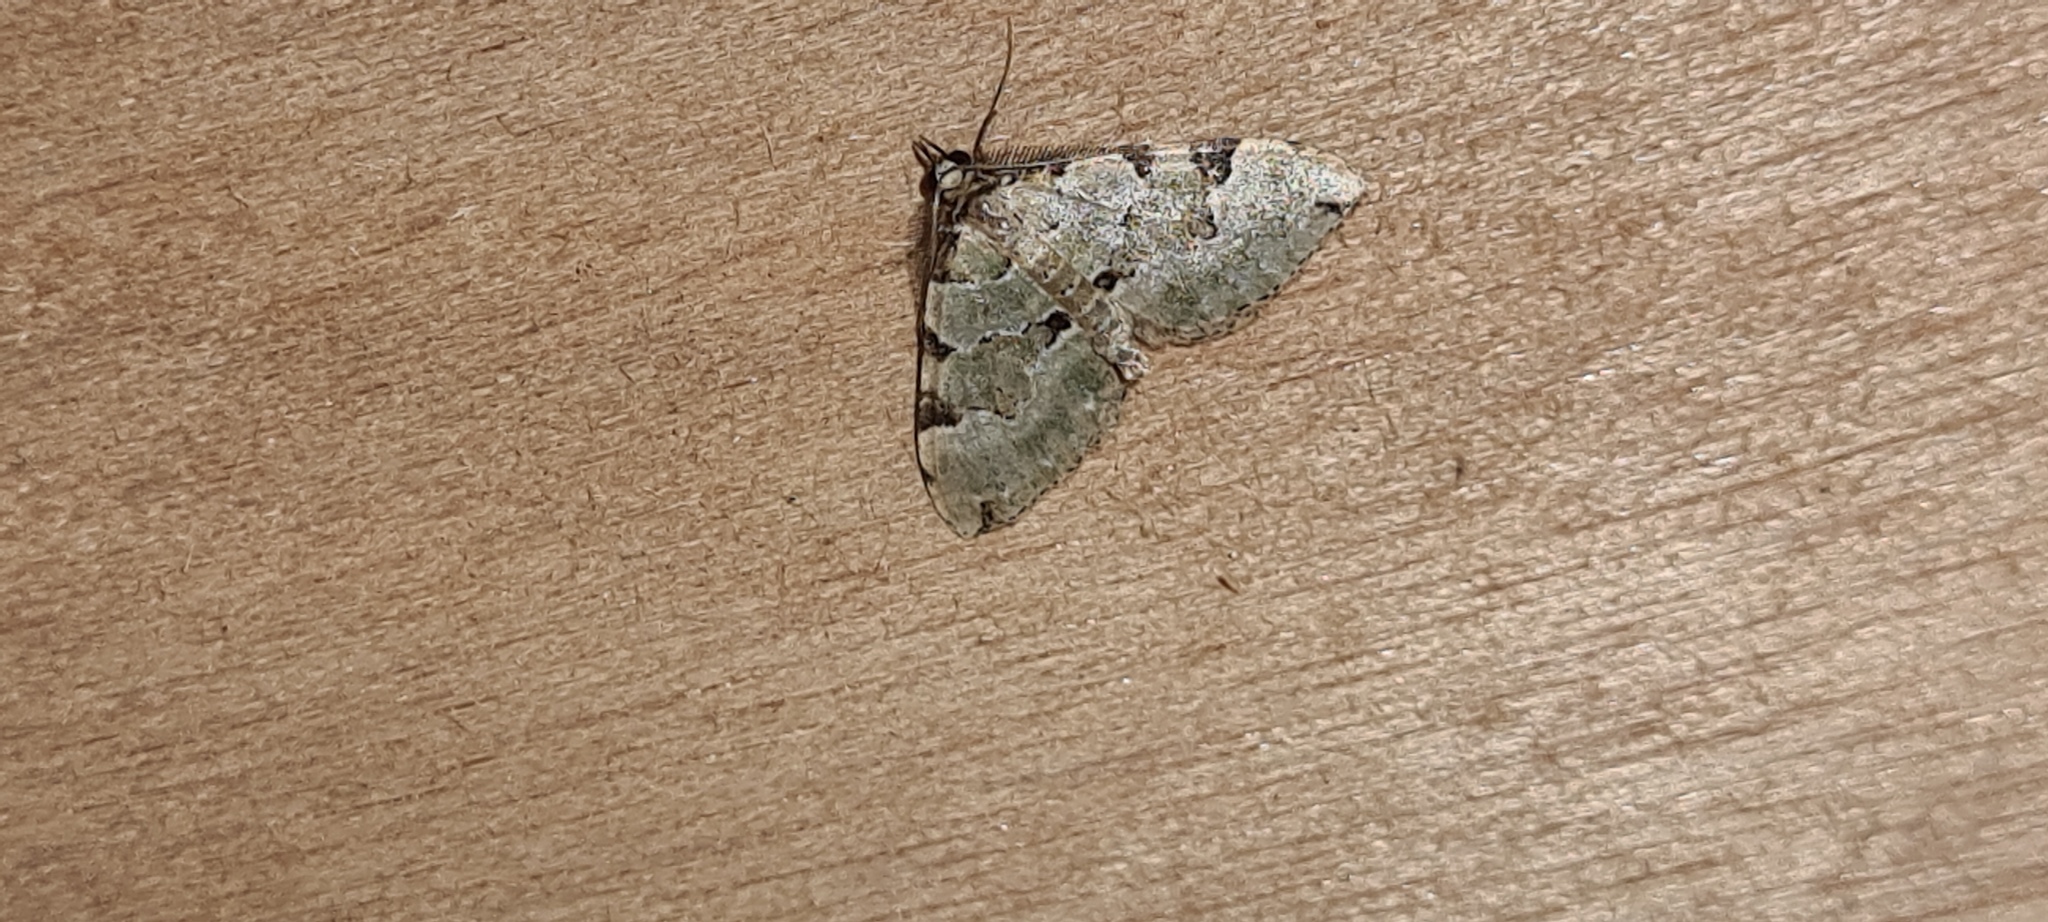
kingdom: Animalia
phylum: Arthropoda
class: Insecta
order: Lepidoptera
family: Geometridae
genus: Colostygia
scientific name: Colostygia pectinataria
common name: Green carpet
